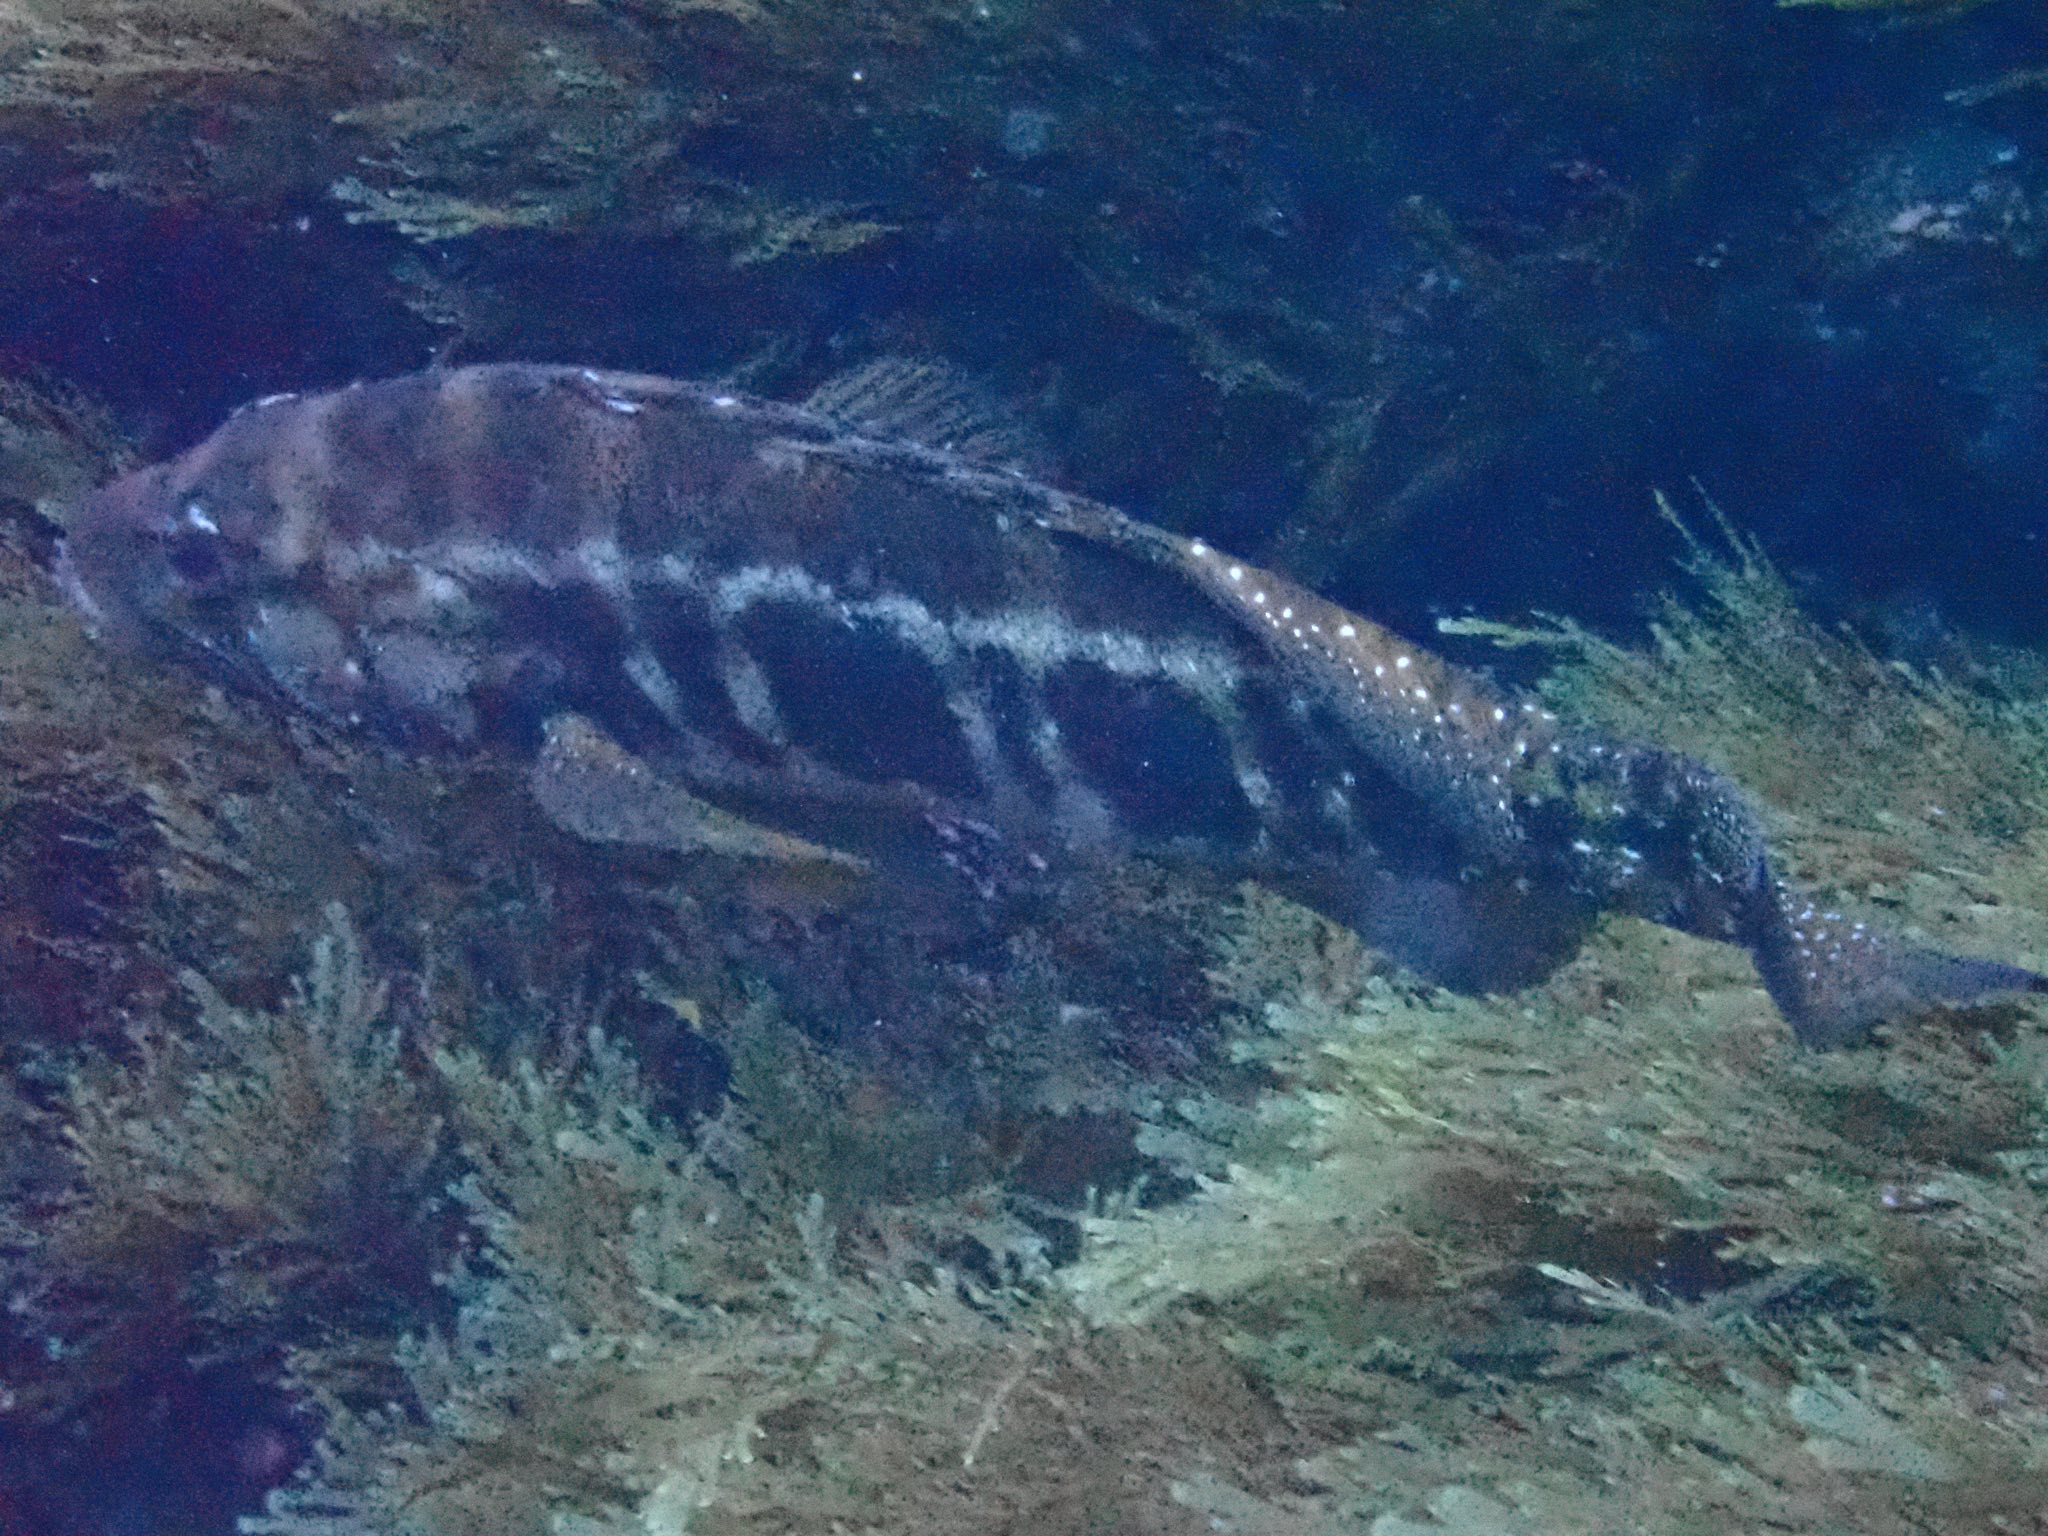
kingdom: Animalia
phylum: Chordata
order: Perciformes
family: Serranidae
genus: Serranus
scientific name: Serranus atricauda
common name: Blacktail comber
